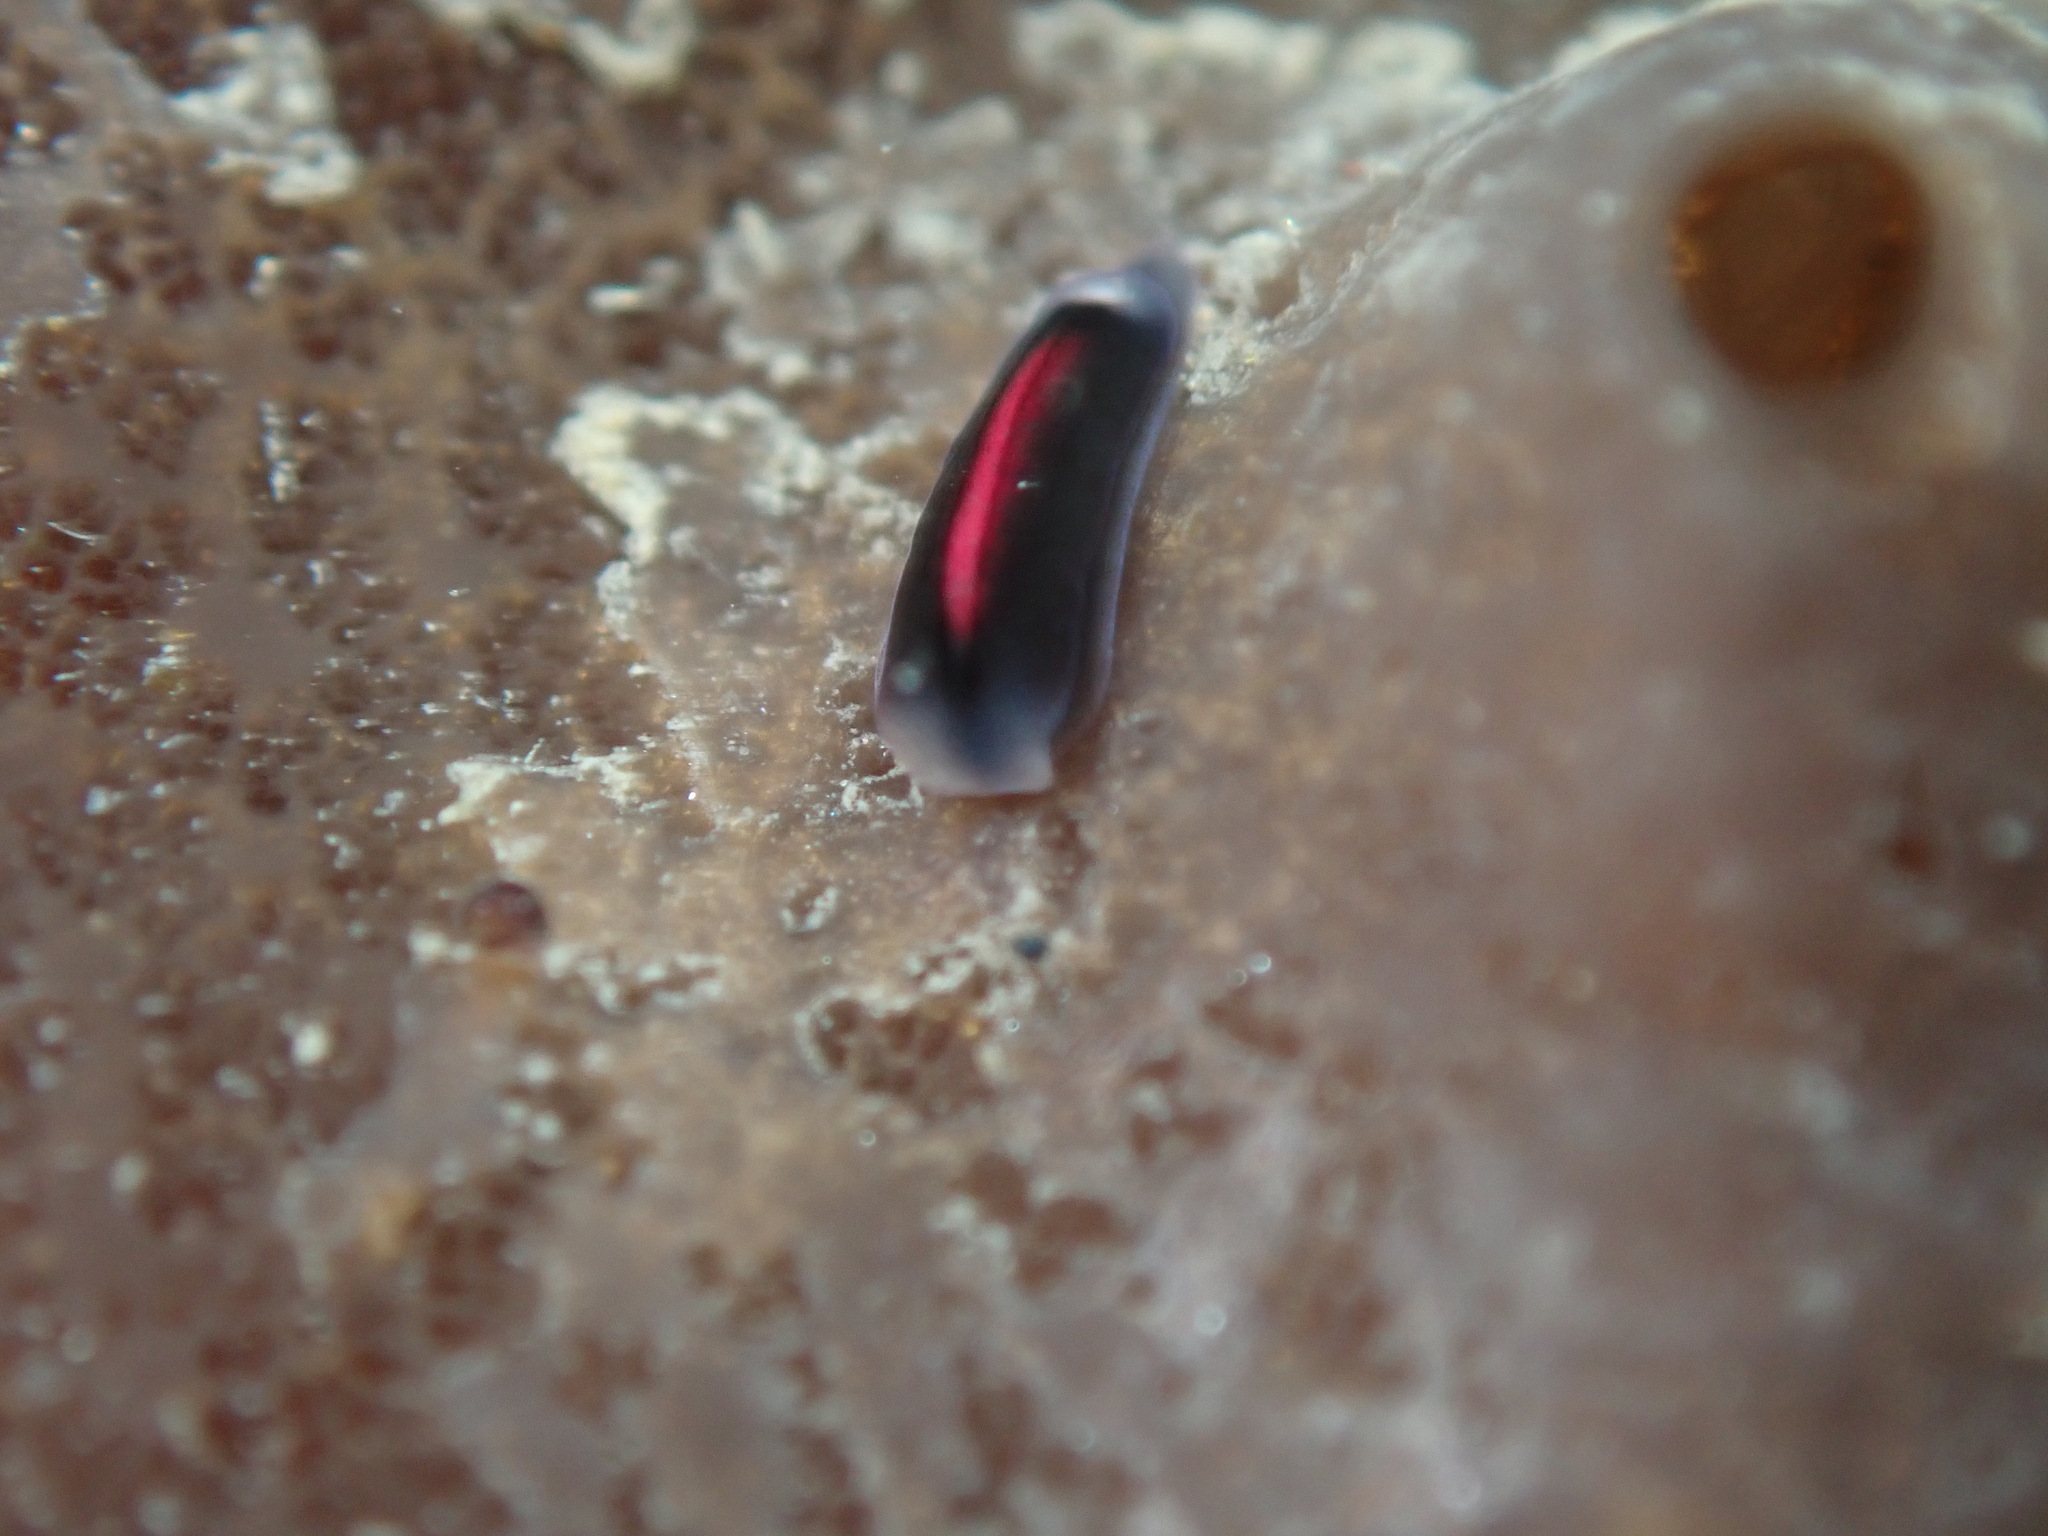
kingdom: Animalia
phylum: Mollusca
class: Gastropoda
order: Runcinida
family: Runcinidae
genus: Runcina
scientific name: Runcina katipoides
